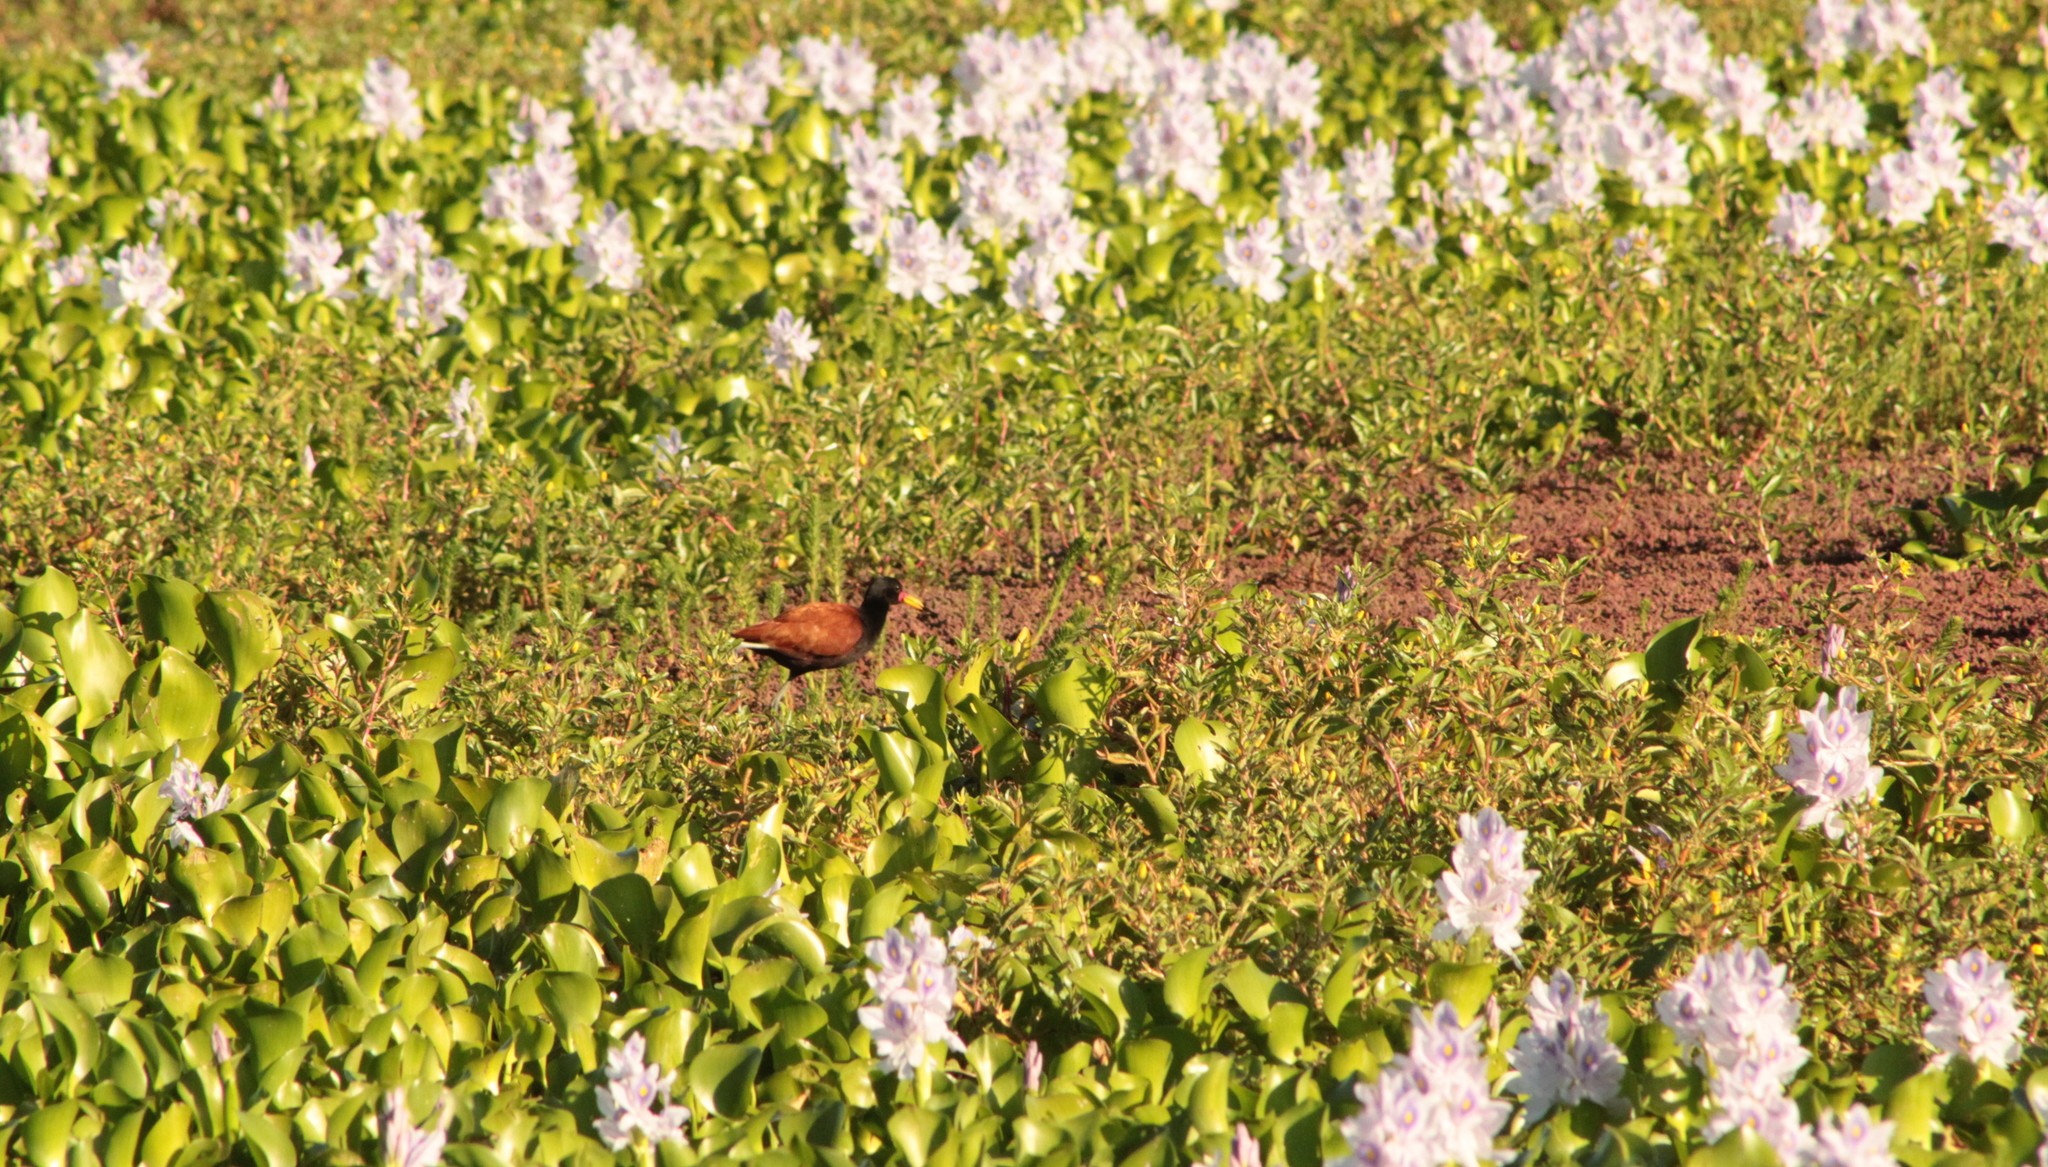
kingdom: Animalia
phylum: Chordata
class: Aves
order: Charadriiformes
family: Jacanidae
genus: Jacana
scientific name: Jacana jacana
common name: Wattled jacana
